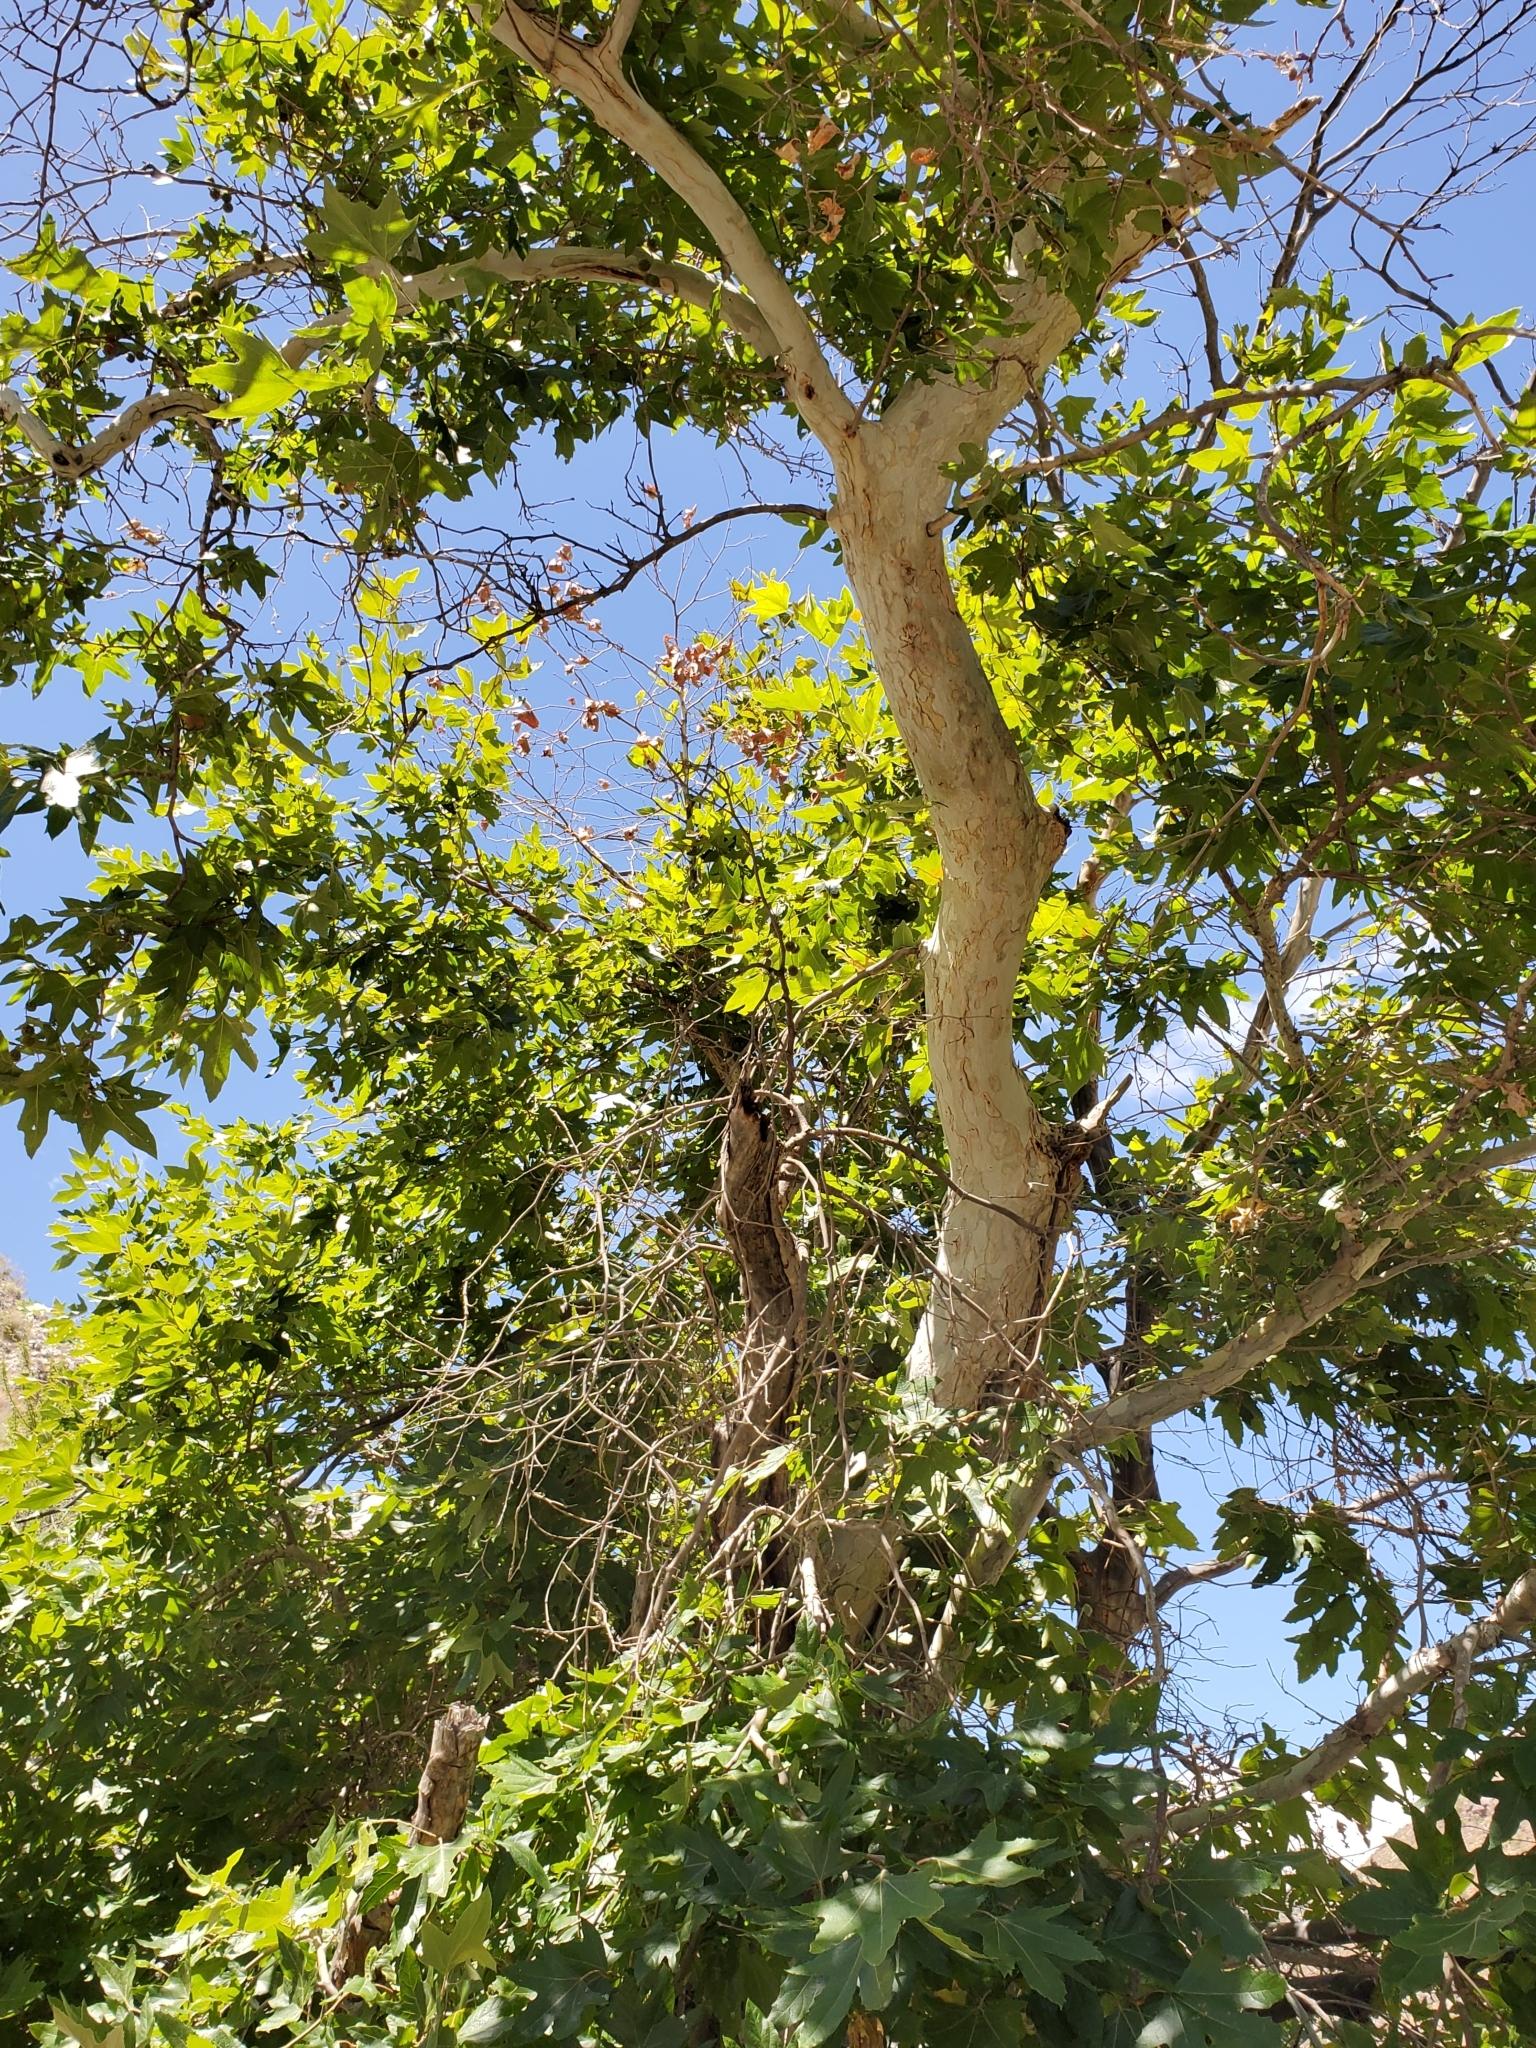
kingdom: Plantae
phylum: Tracheophyta
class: Magnoliopsida
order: Proteales
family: Platanaceae
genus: Platanus
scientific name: Platanus racemosa
